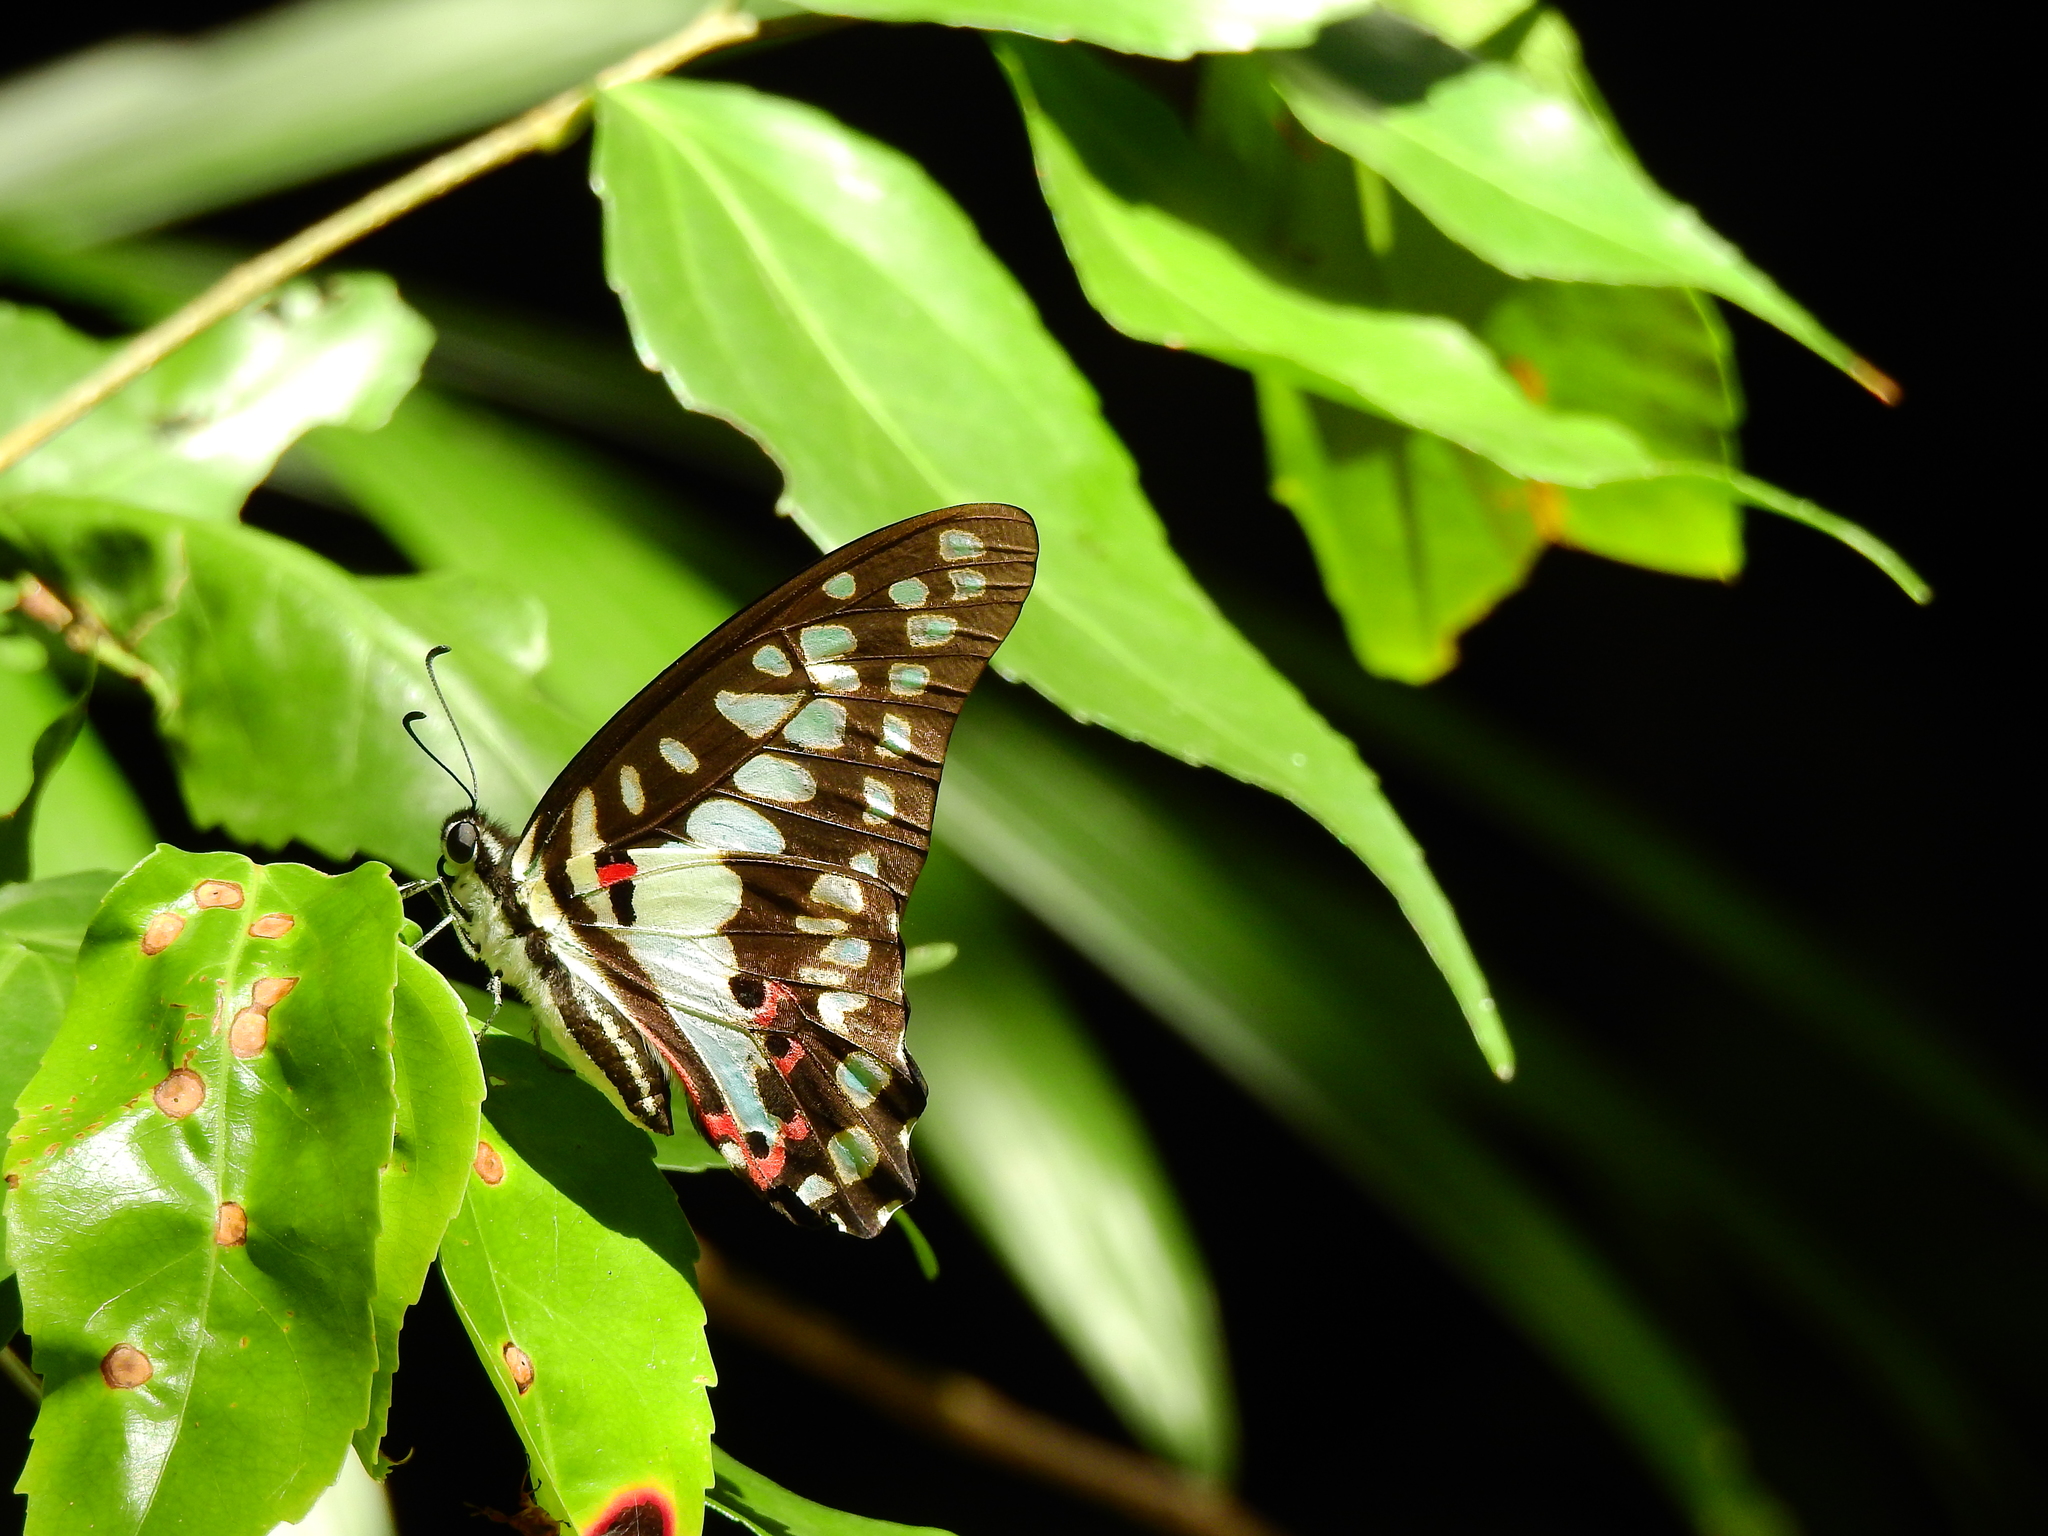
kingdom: Animalia
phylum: Arthropoda
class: Insecta
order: Lepidoptera
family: Papilionidae
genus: Graphium
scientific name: Graphium doson
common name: Common jay
